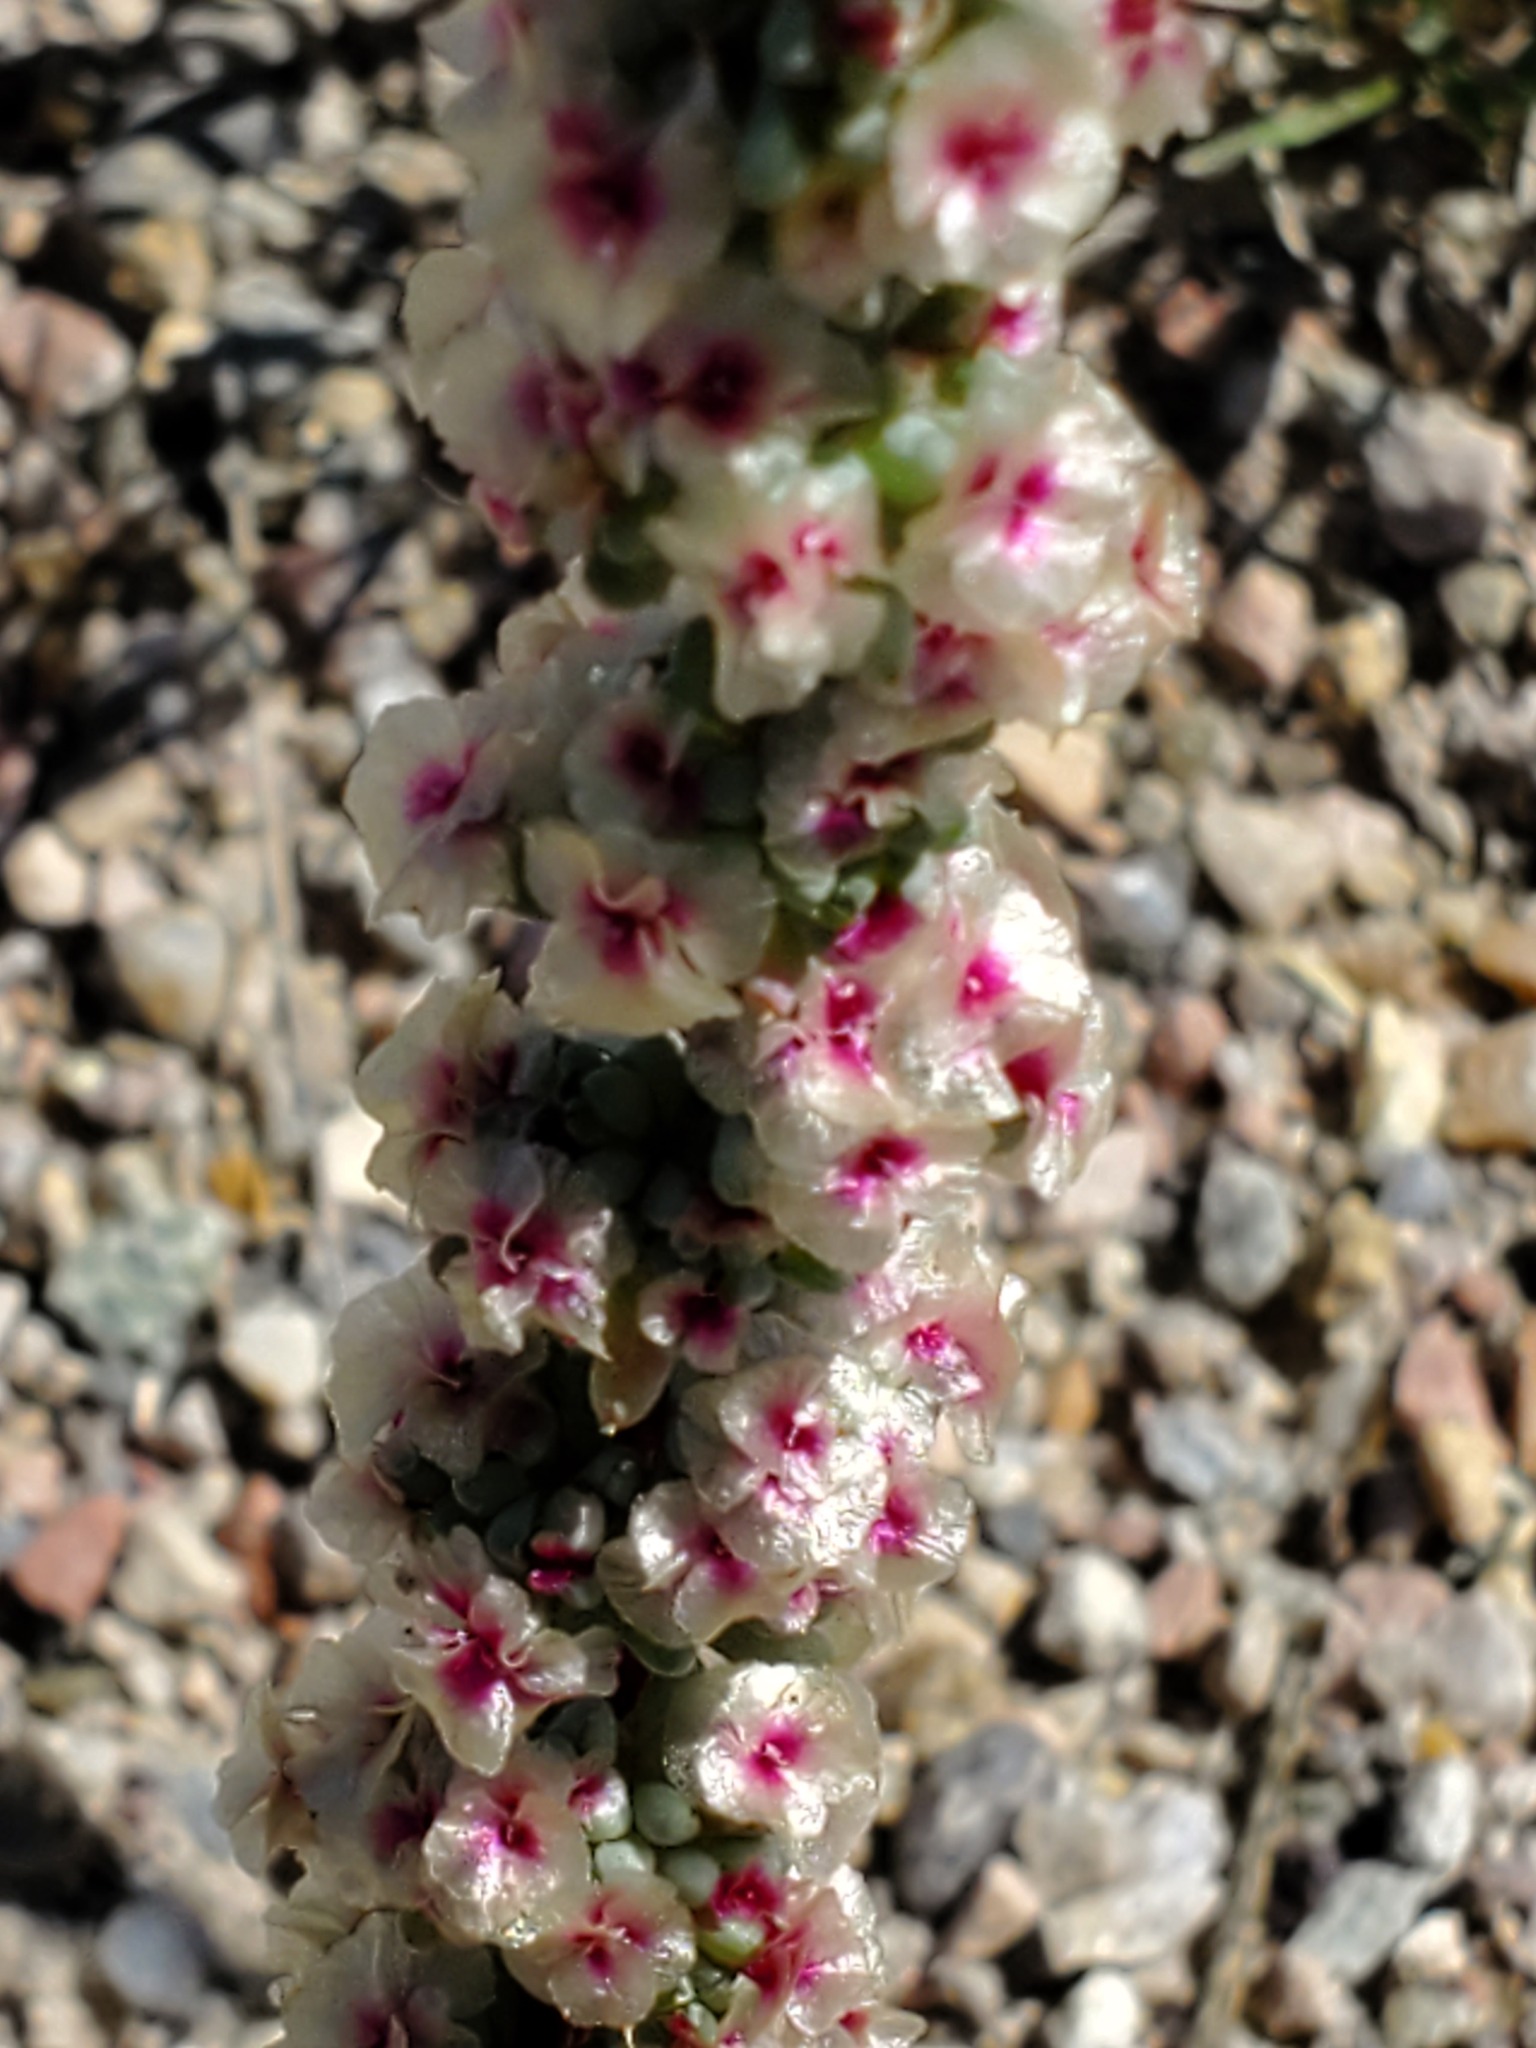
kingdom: Plantae
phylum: Tracheophyta
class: Magnoliopsida
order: Caryophyllales
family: Amaranthaceae
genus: Halogeton
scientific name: Halogeton glomeratus
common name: Saltlover
